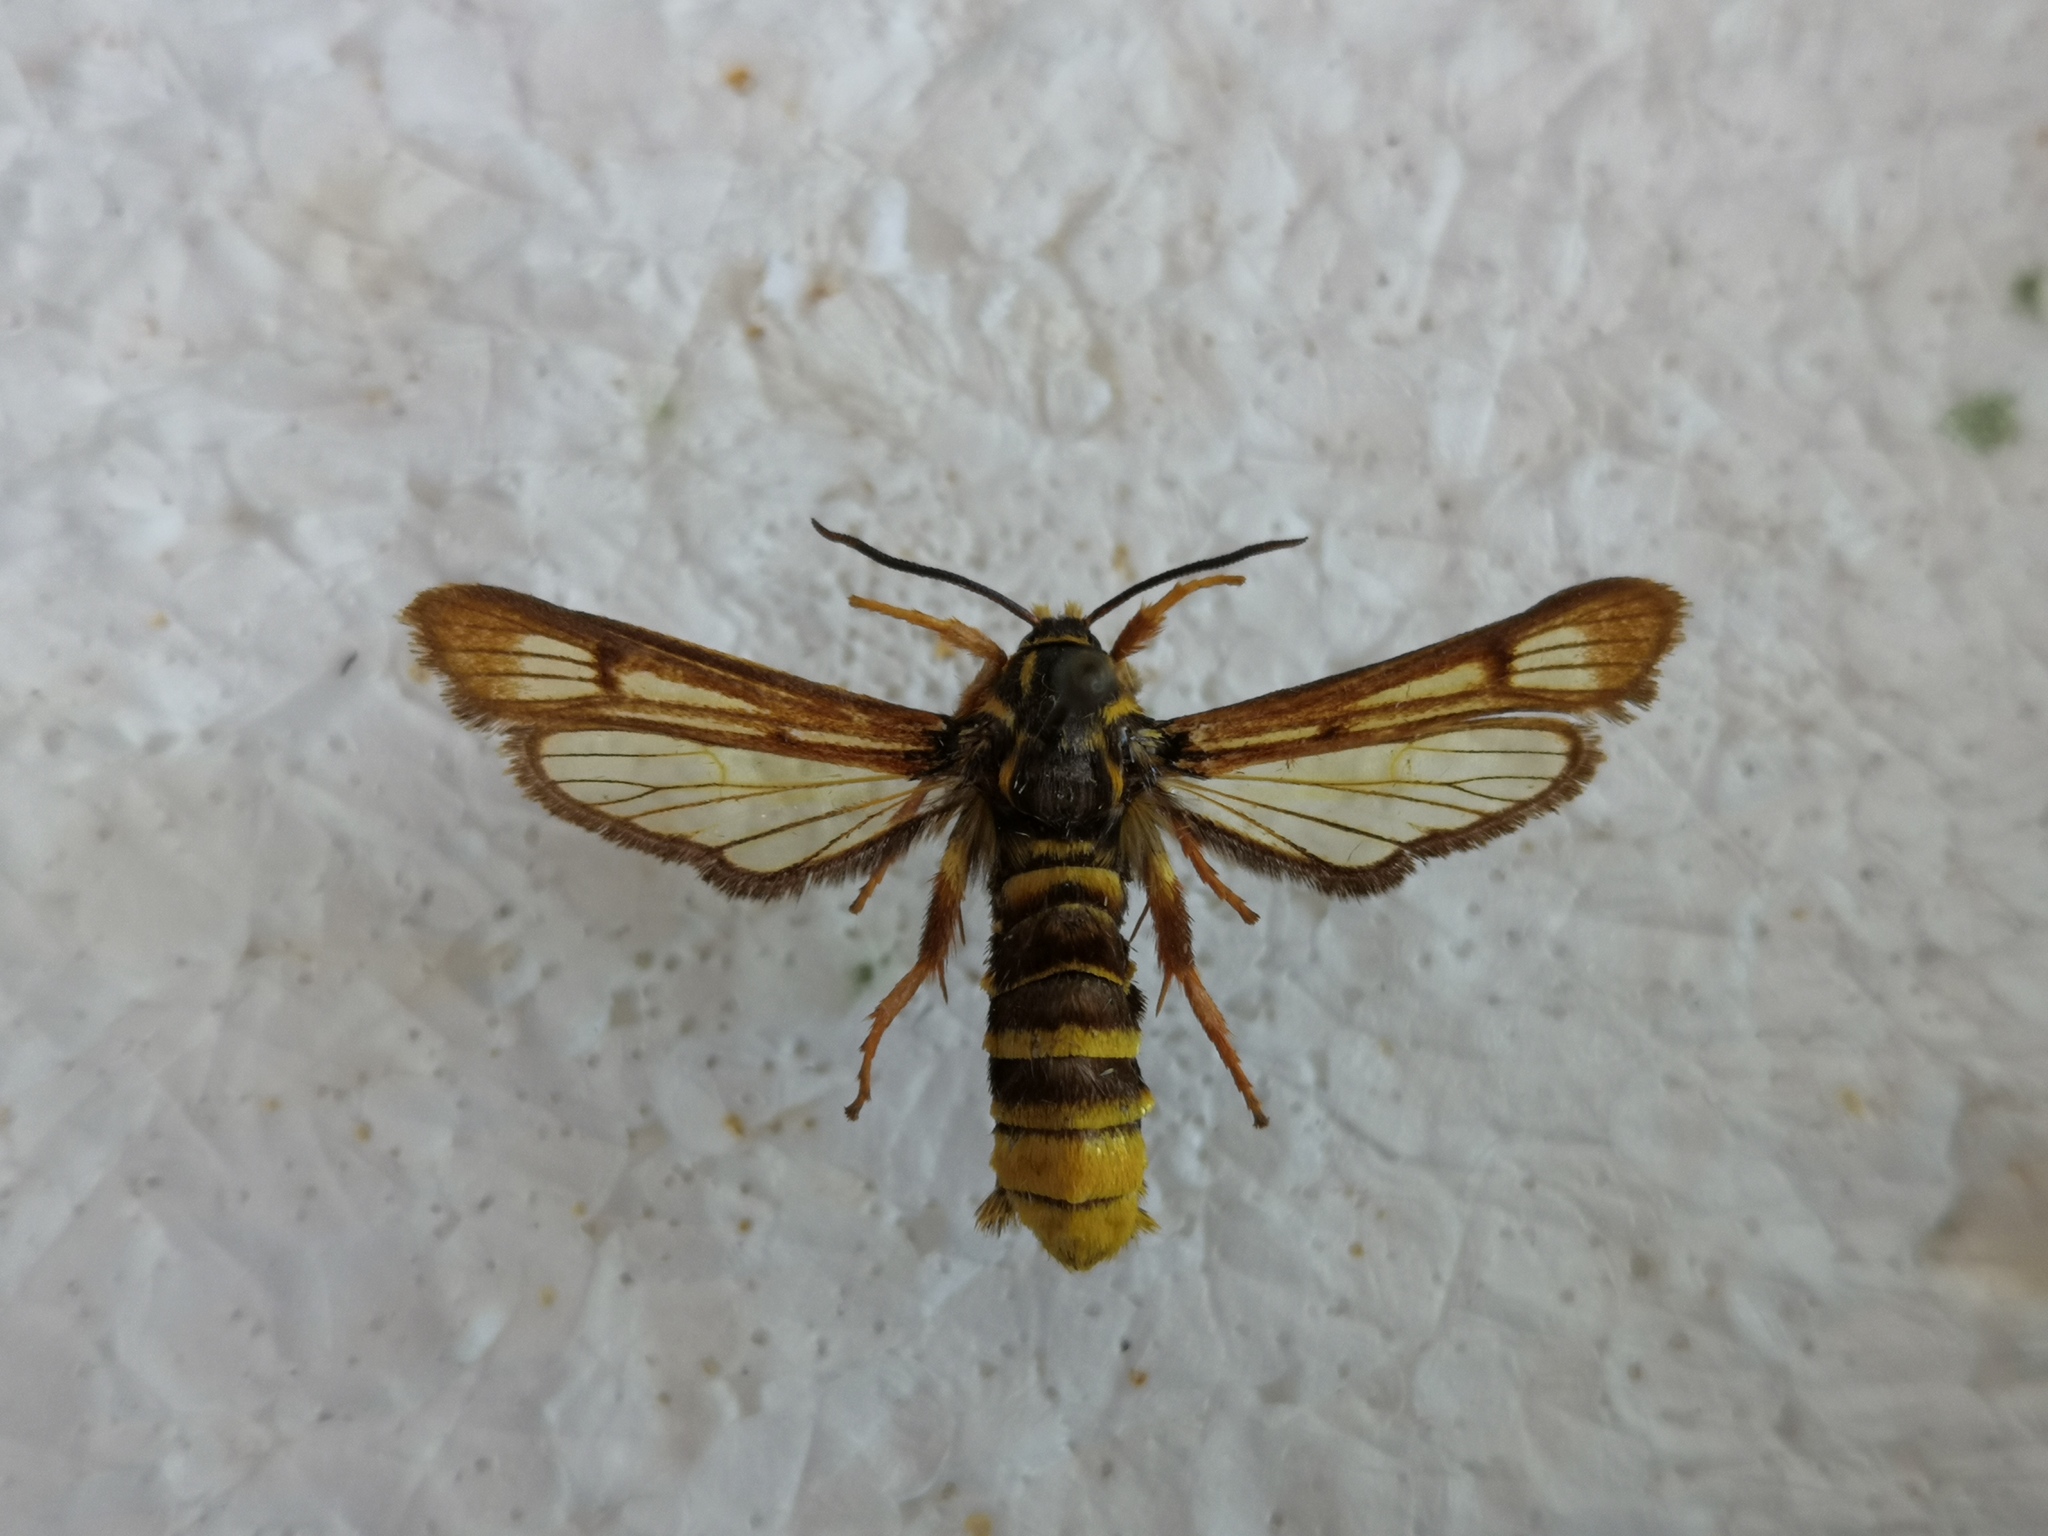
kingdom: Animalia
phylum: Arthropoda
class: Insecta
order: Lepidoptera
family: Sesiidae
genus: Pennisetia
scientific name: Pennisetia bohemica
